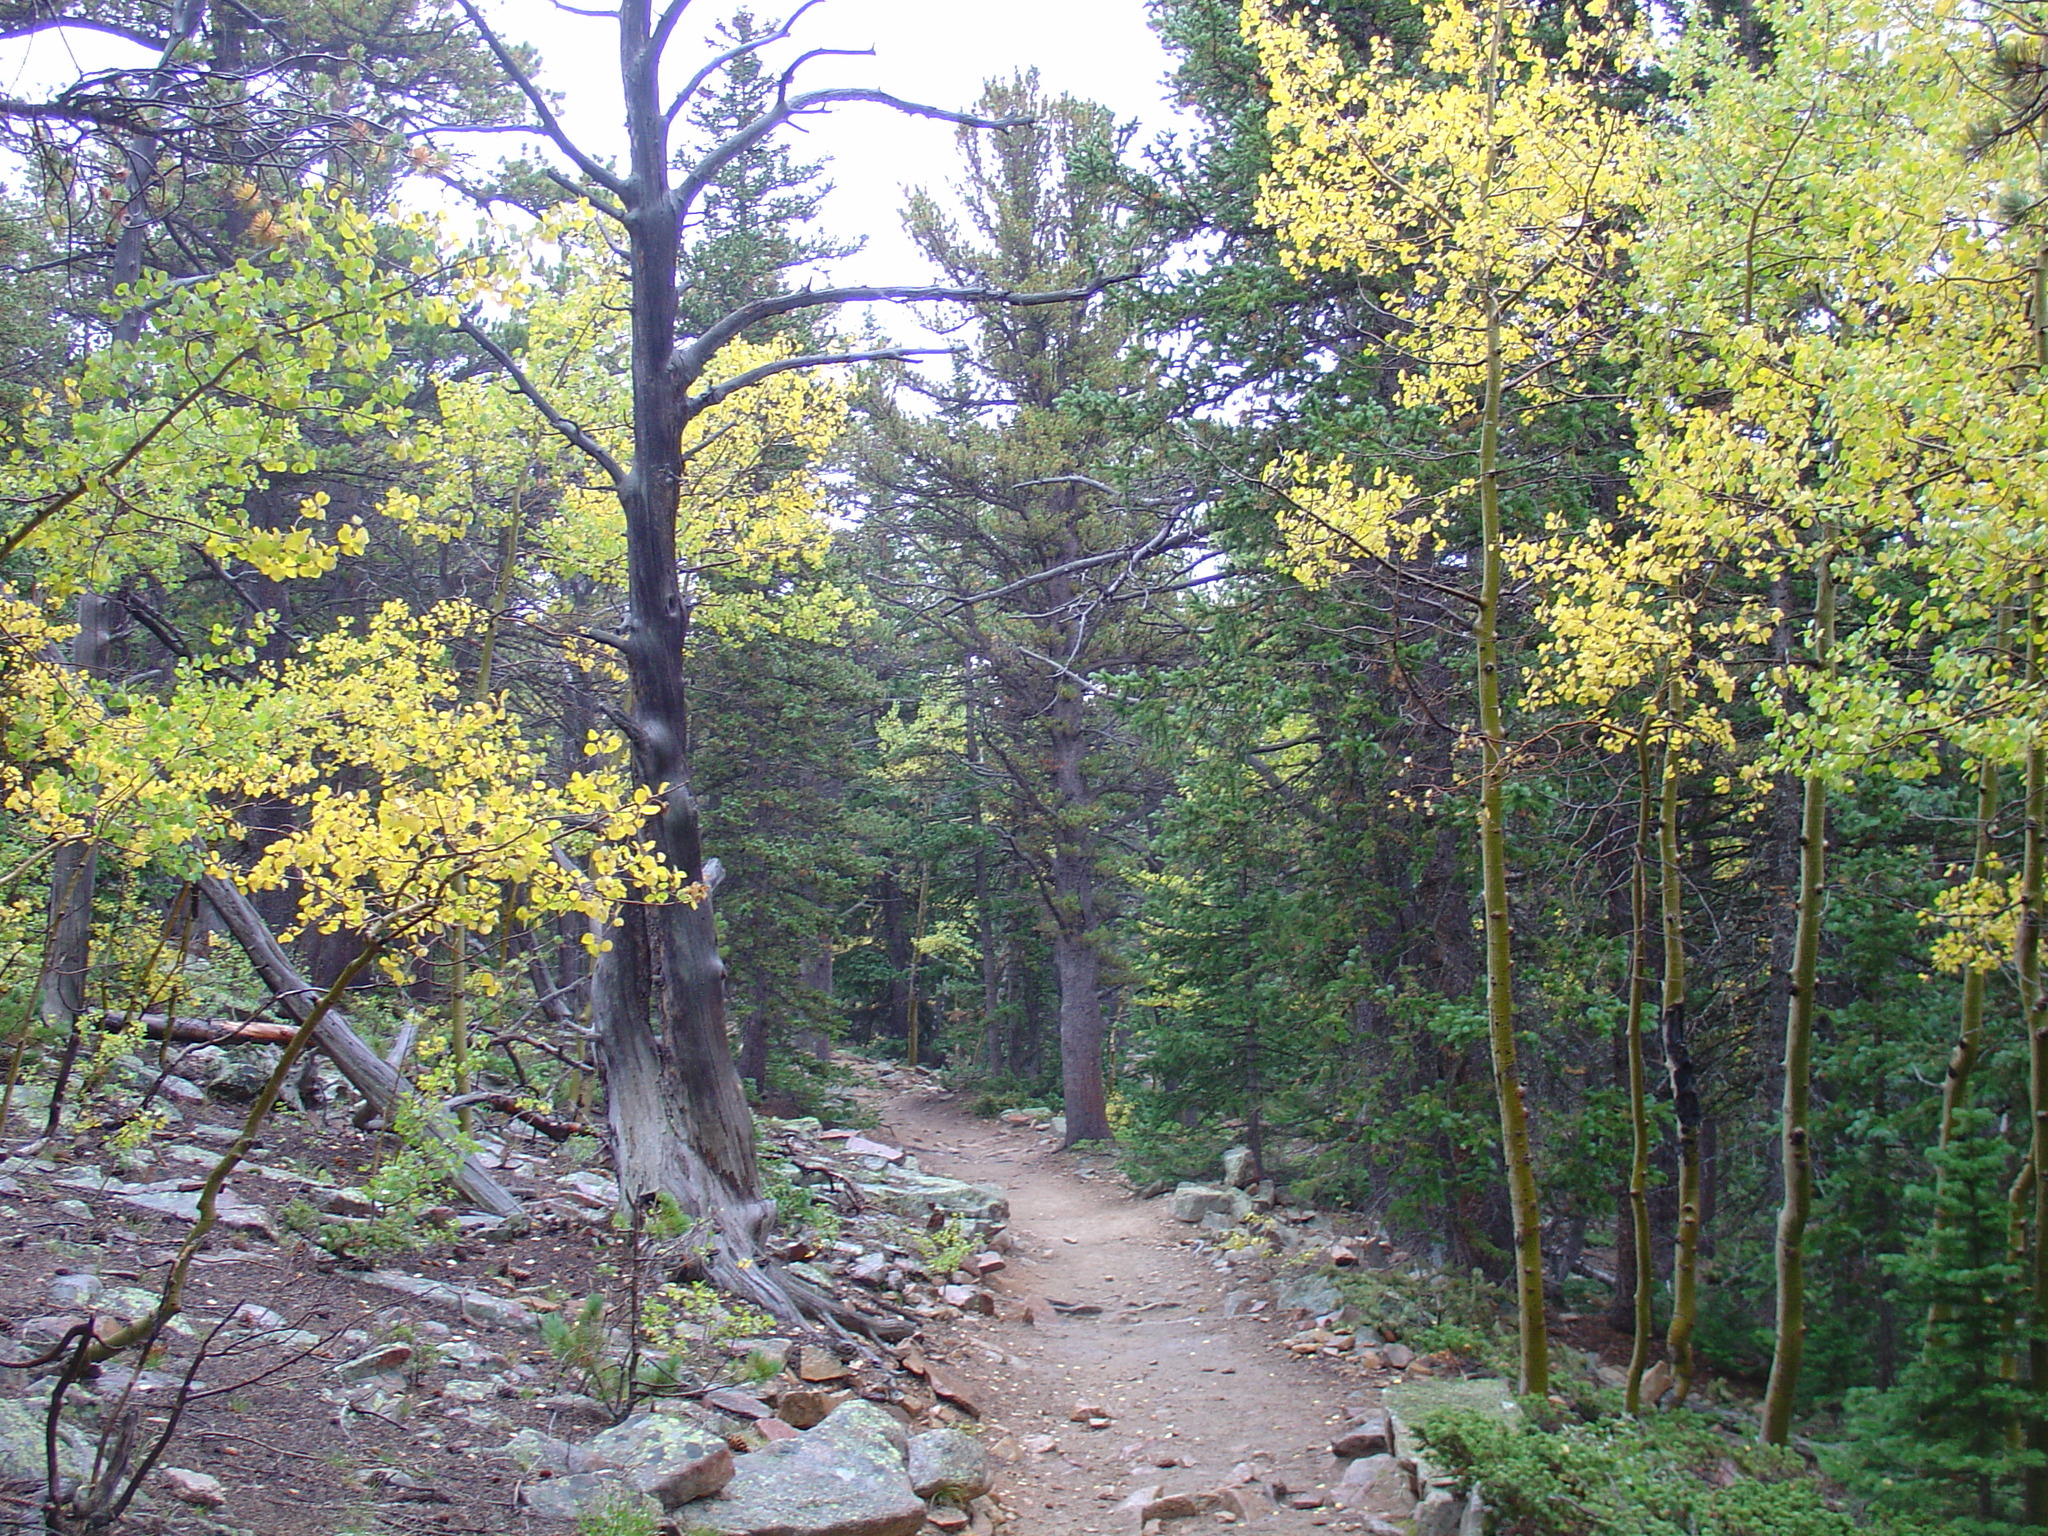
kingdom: Plantae
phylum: Tracheophyta
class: Magnoliopsida
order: Malpighiales
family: Salicaceae
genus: Populus
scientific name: Populus tremuloides
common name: Quaking aspen
